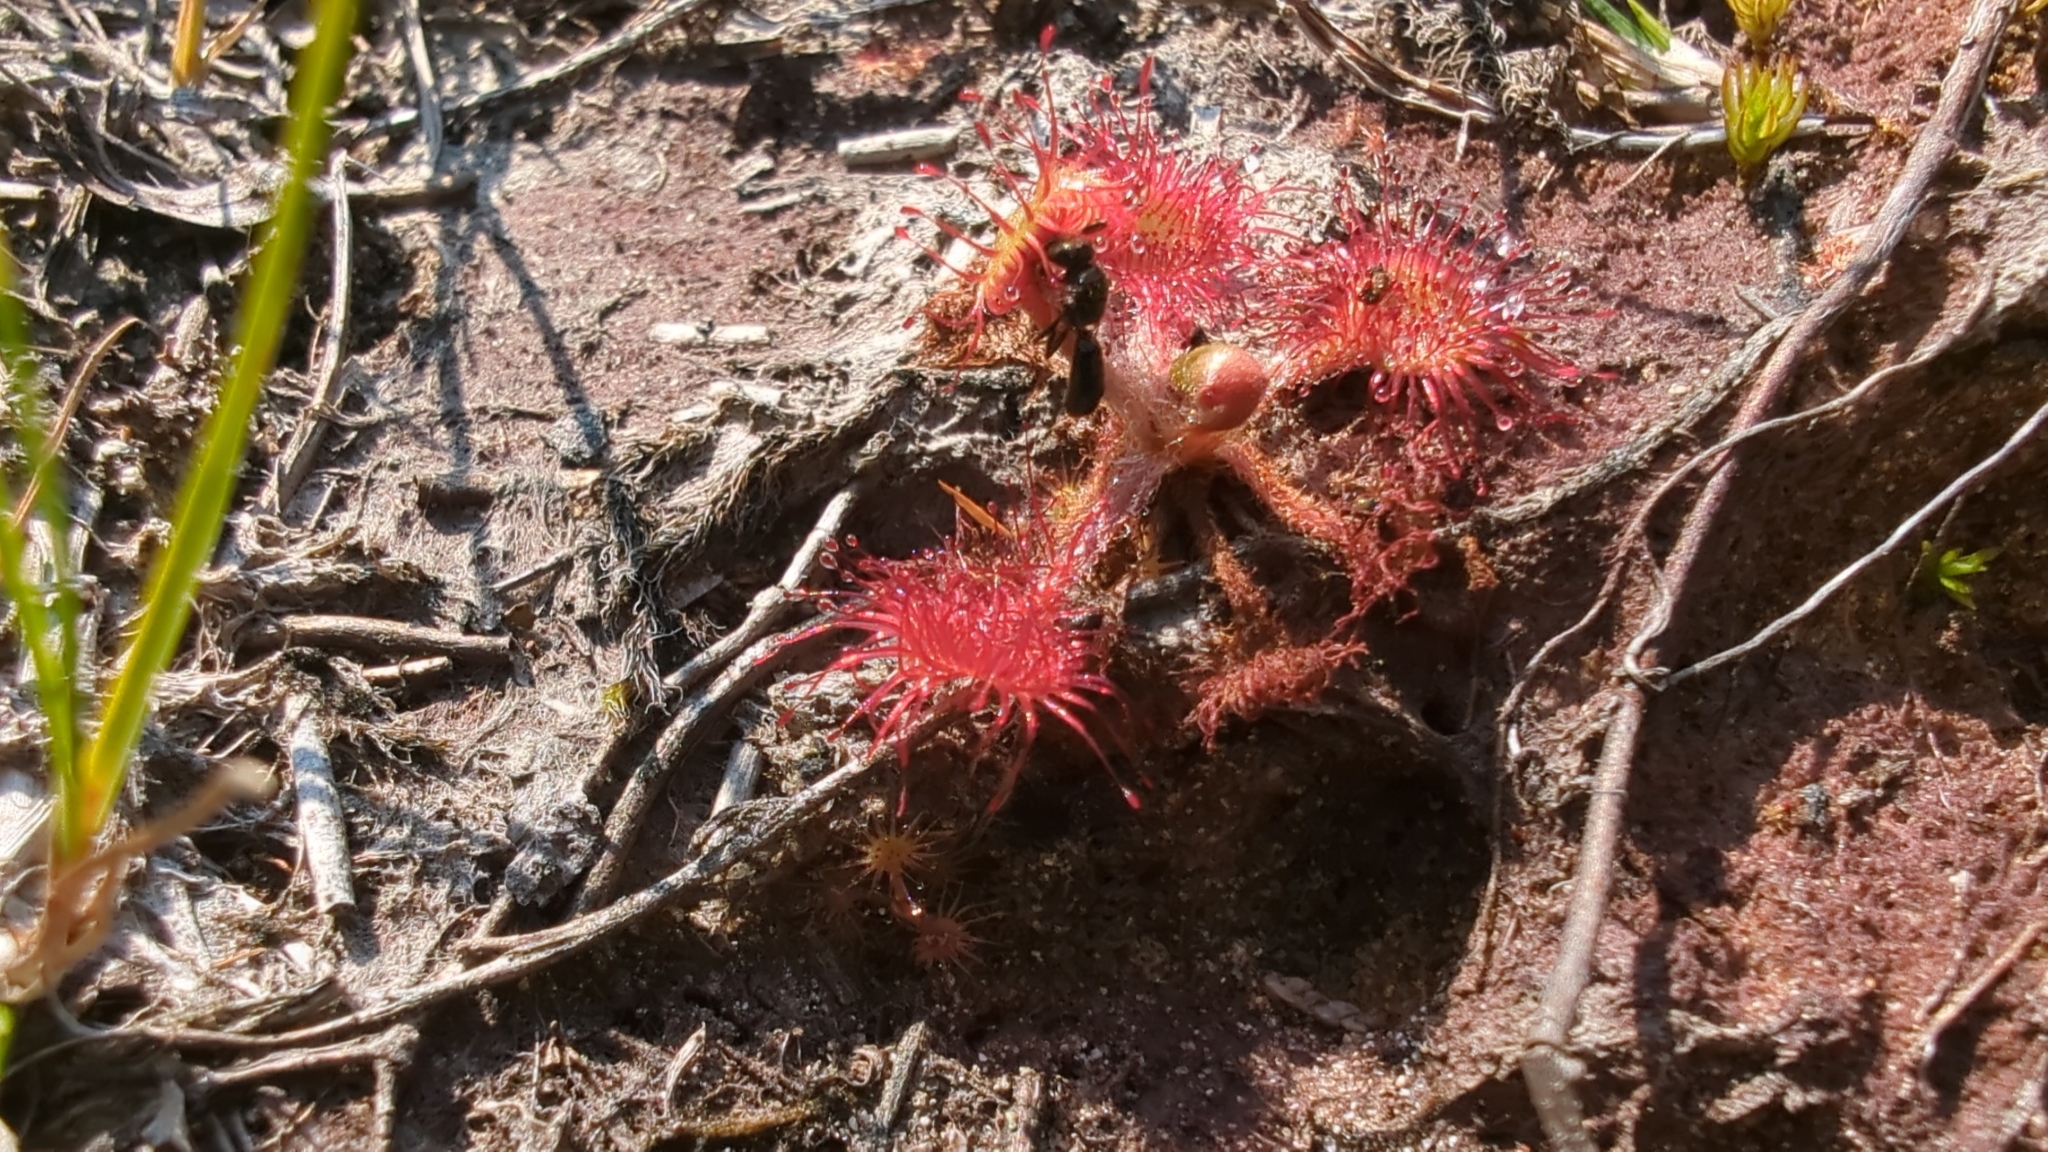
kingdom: Plantae
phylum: Tracheophyta
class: Magnoliopsida
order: Caryophyllales
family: Droseraceae
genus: Drosera
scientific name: Drosera rotundifolia
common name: Round-leaved sundew
